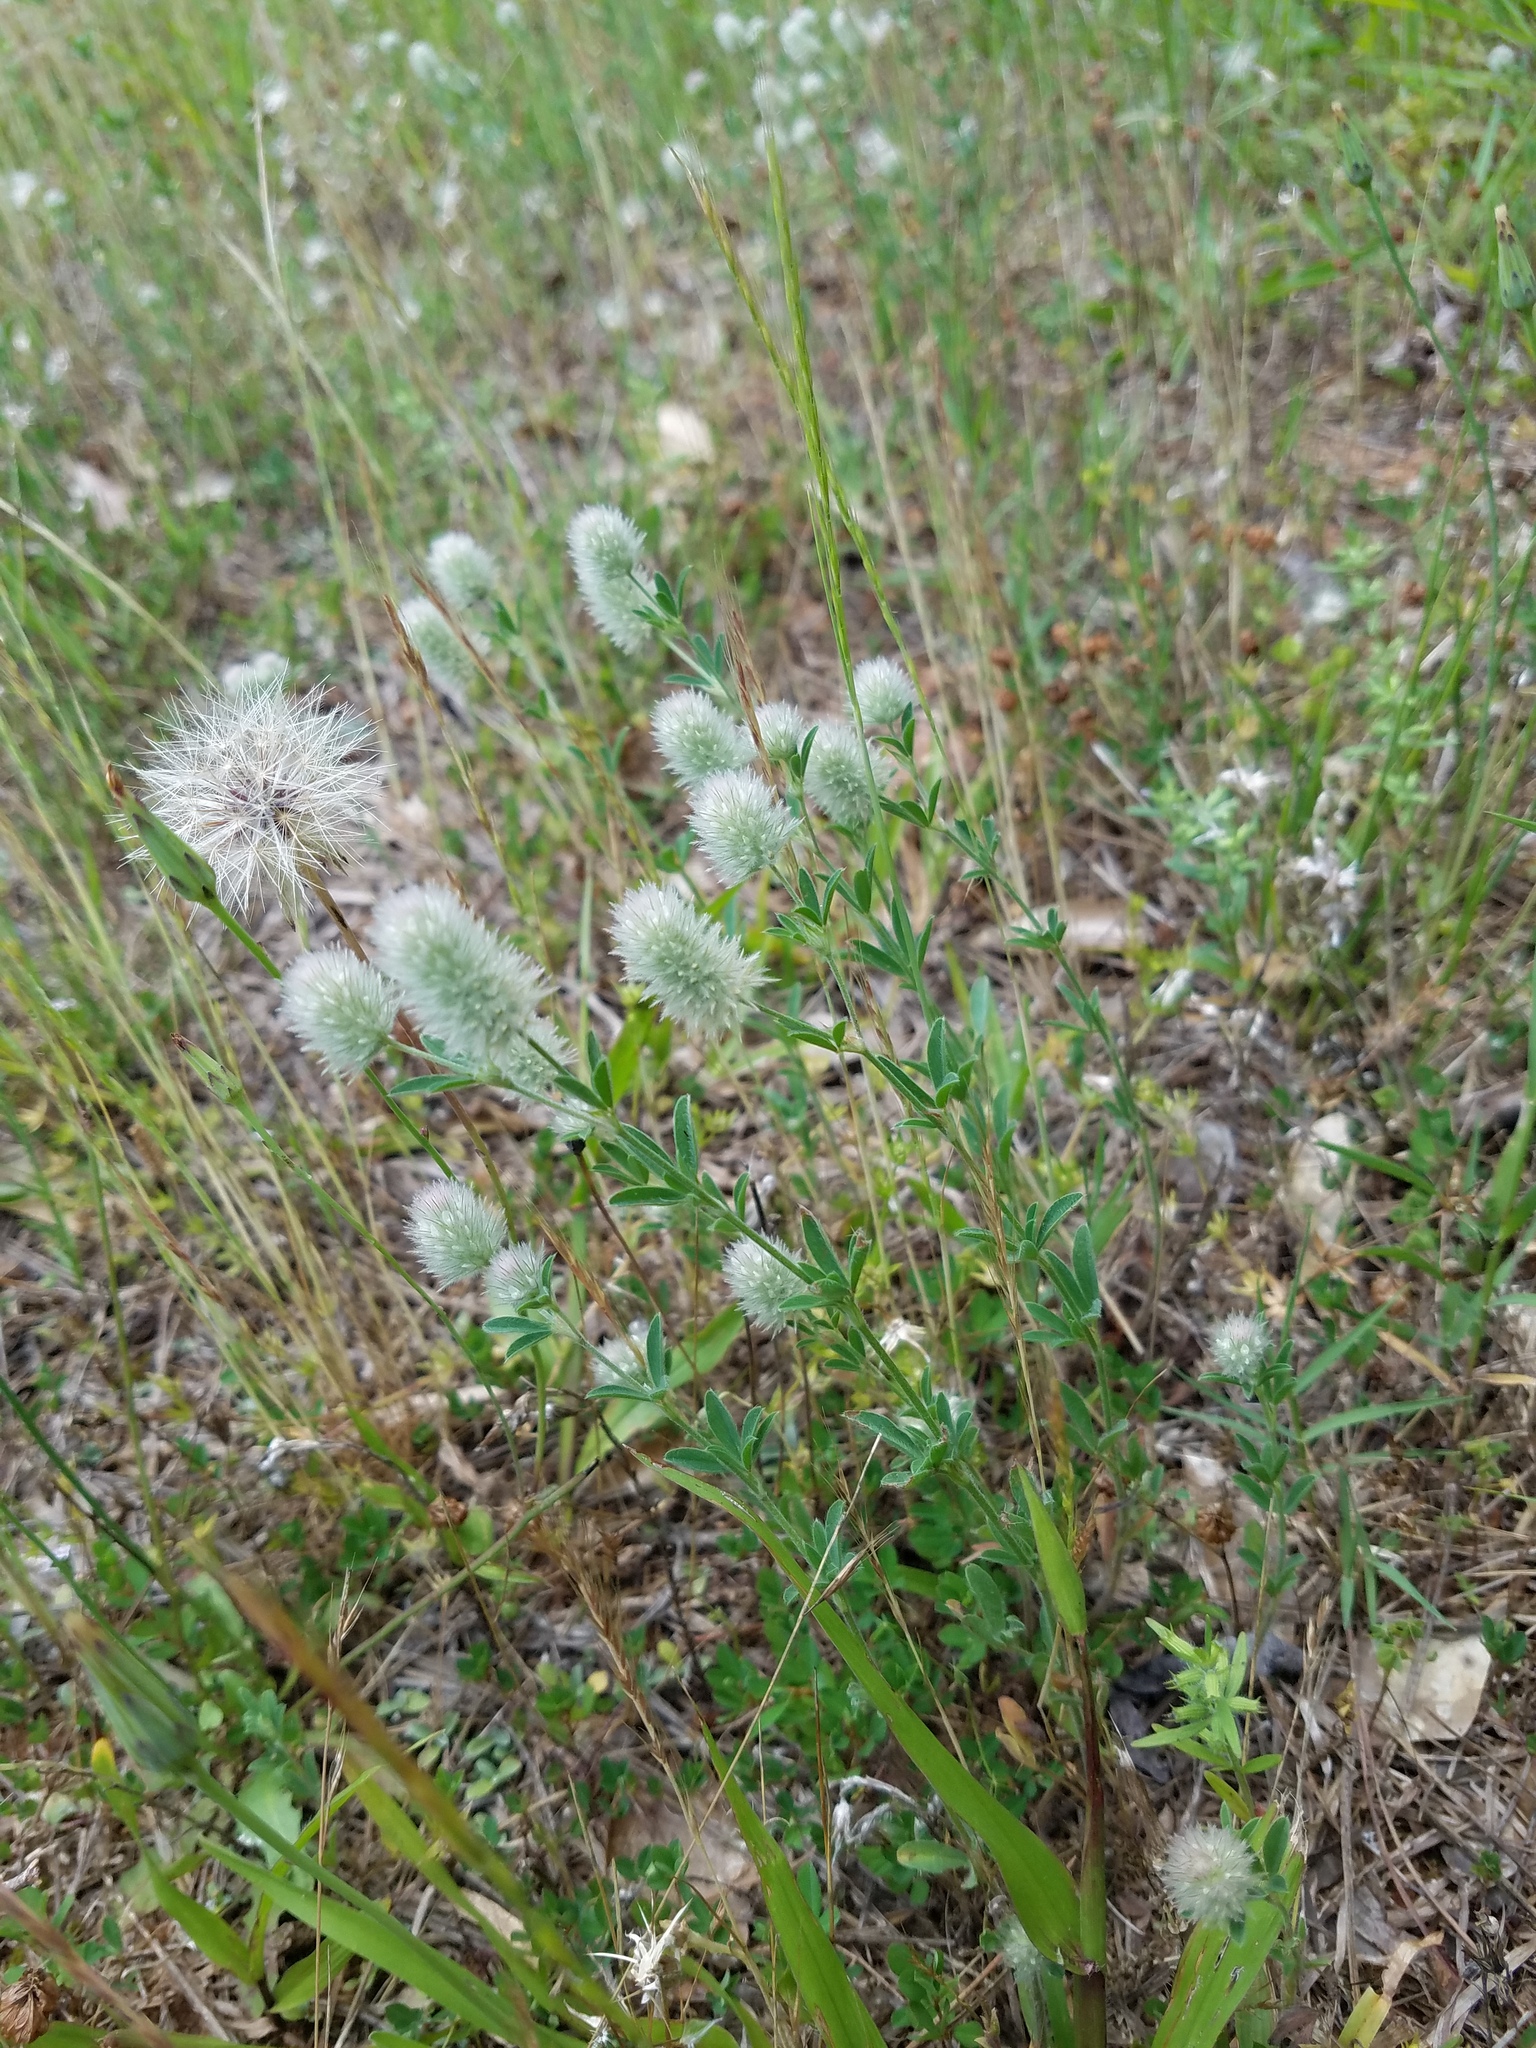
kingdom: Plantae
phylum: Tracheophyta
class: Magnoliopsida
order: Fabales
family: Fabaceae
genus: Trifolium
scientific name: Trifolium arvense
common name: Hare's-foot clover
